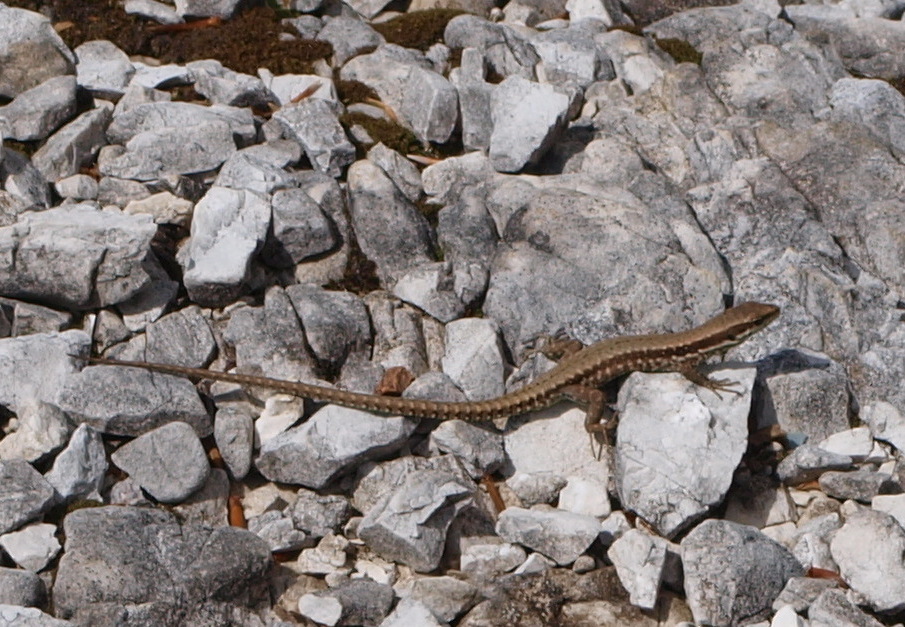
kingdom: Animalia
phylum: Chordata
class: Squamata
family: Lacertidae
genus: Podarcis
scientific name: Podarcis muralis
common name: Common wall lizard
